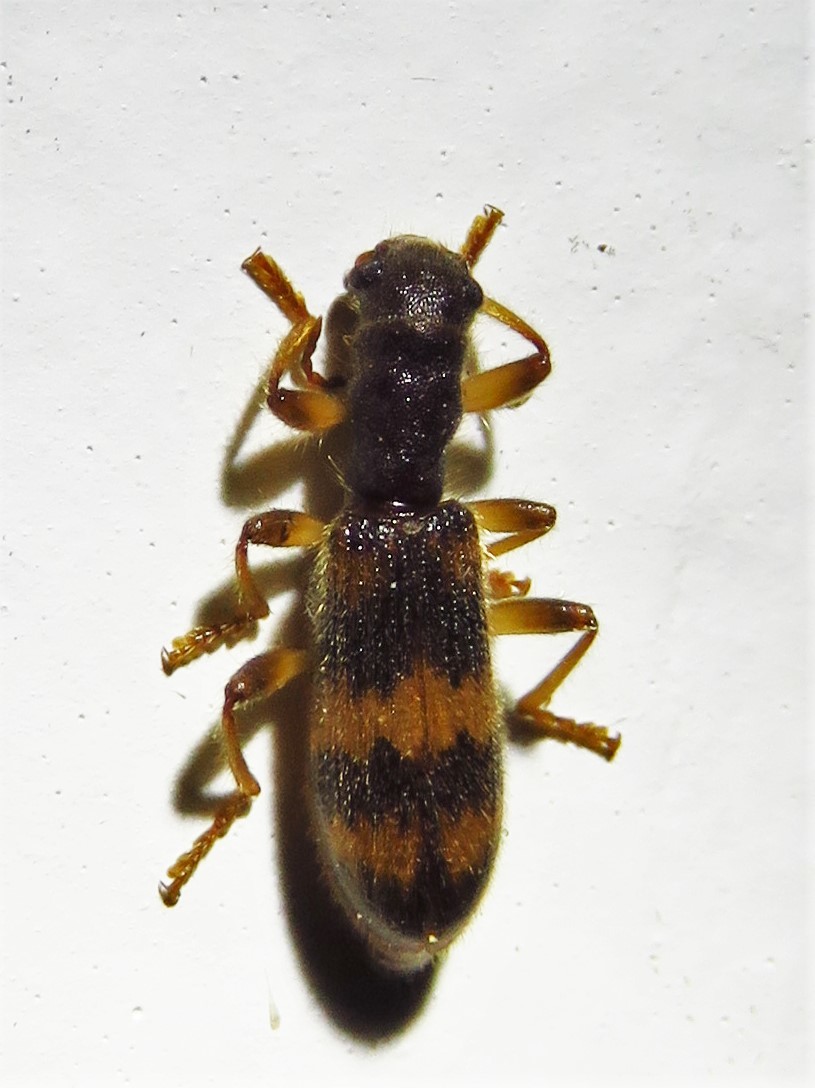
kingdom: Animalia
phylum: Arthropoda
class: Insecta
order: Coleoptera
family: Cleridae
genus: Cymatodera
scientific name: Cymatodera undulata
